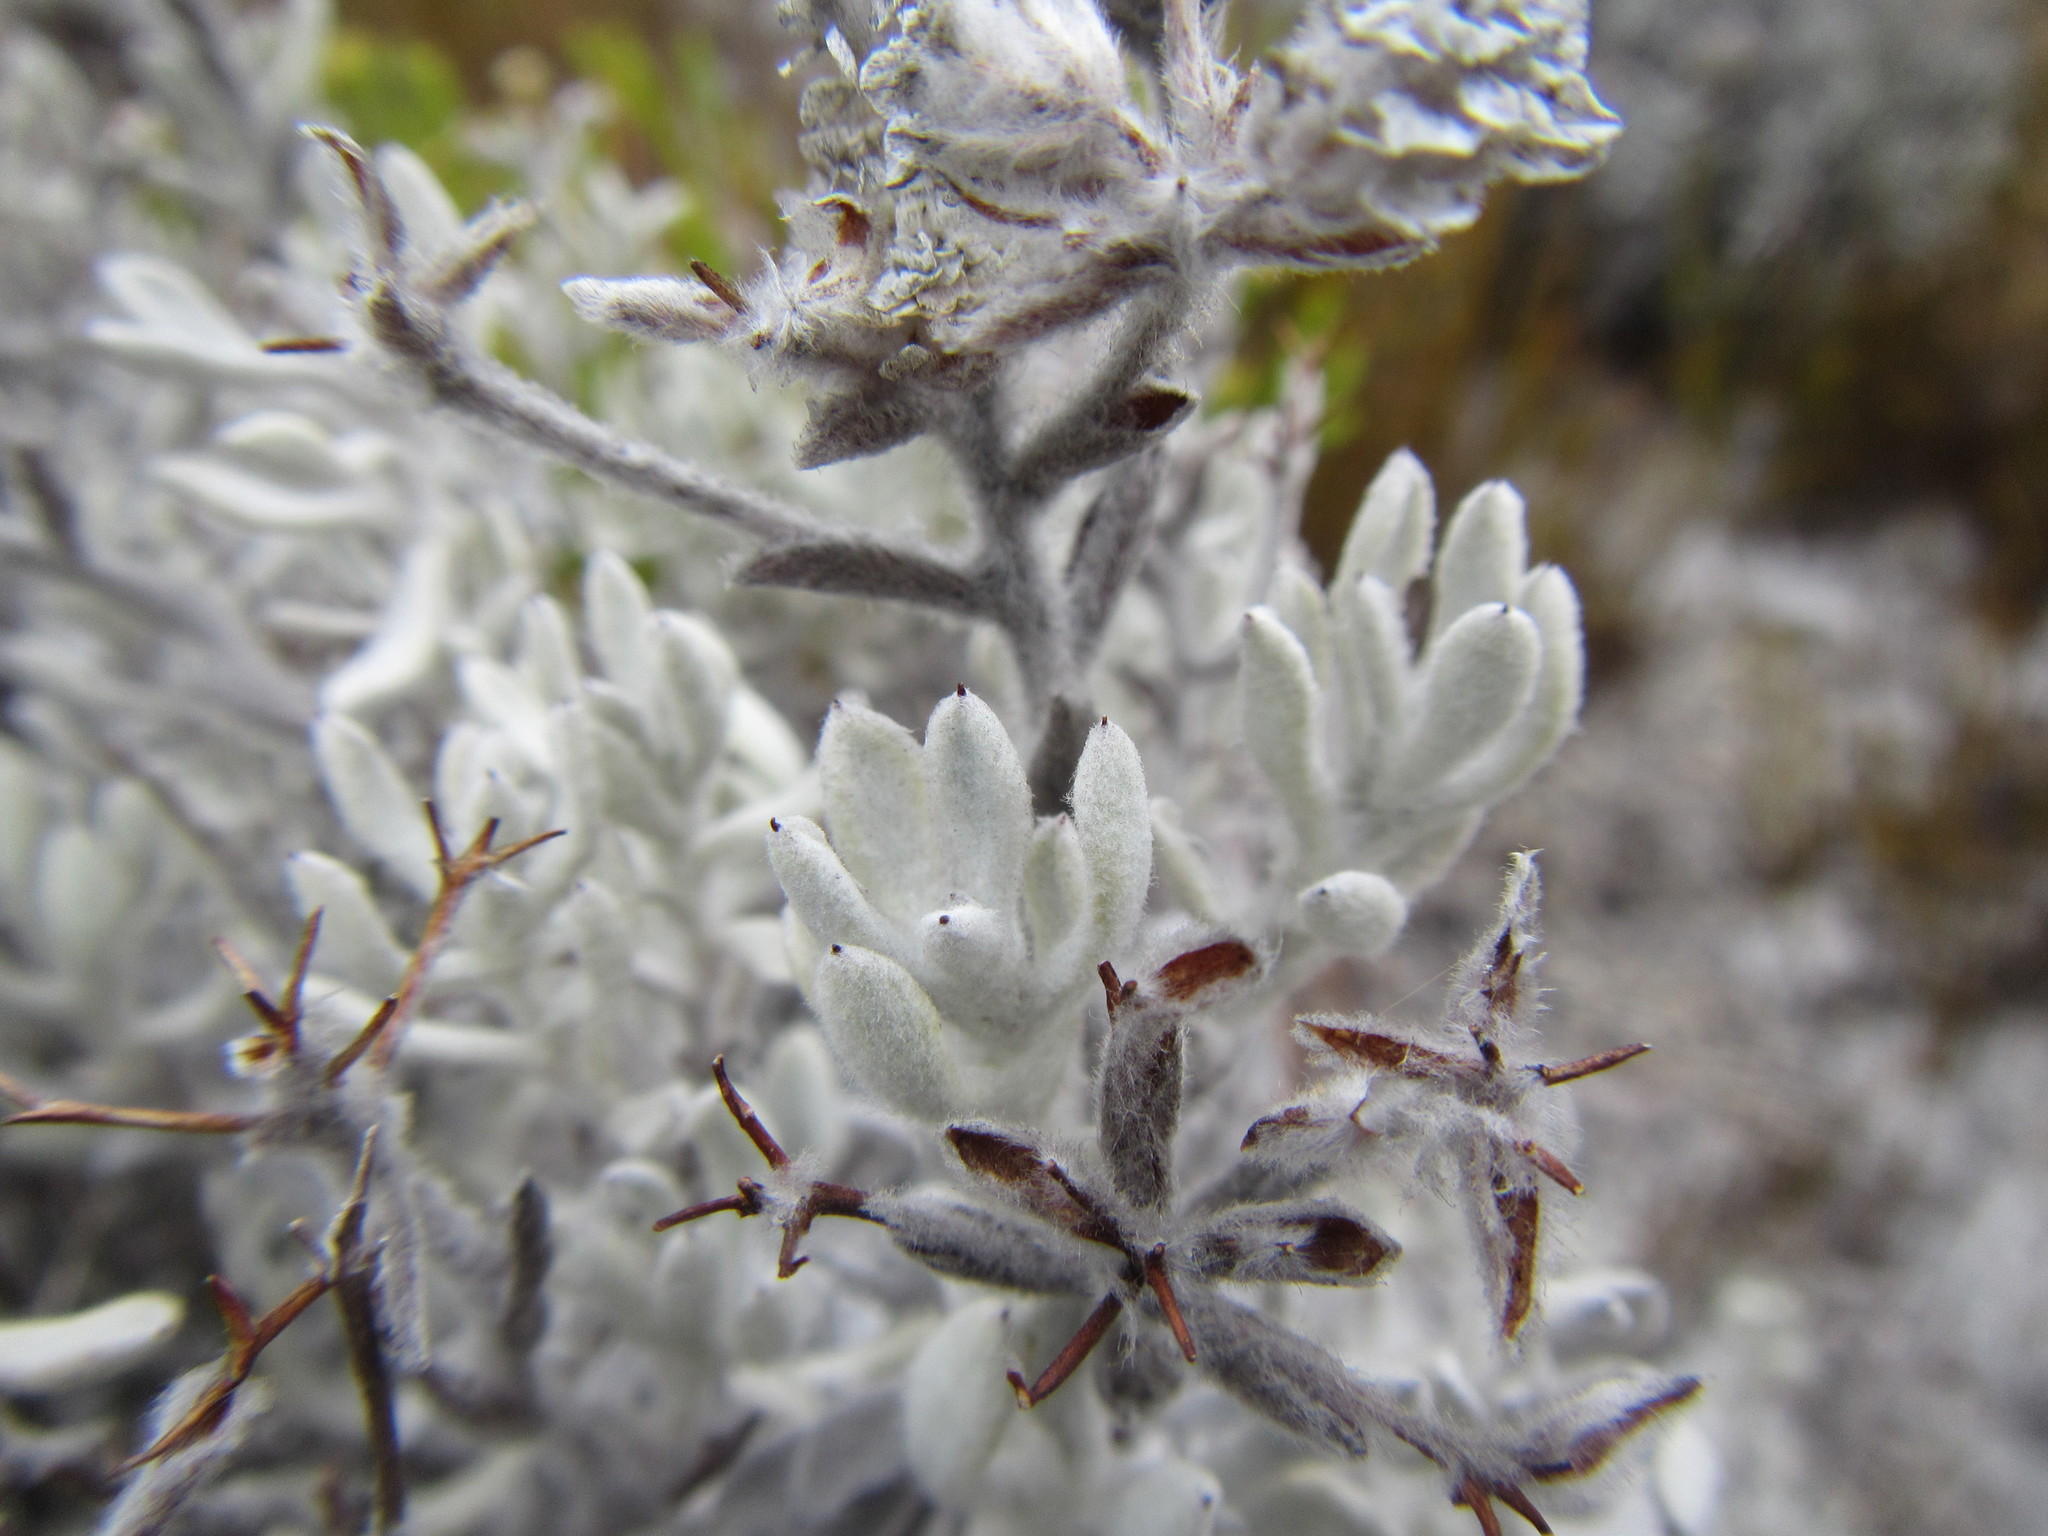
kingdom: Plantae
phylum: Tracheophyta
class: Magnoliopsida
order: Asterales
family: Asteraceae
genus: Petalacte
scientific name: Petalacte coronata
